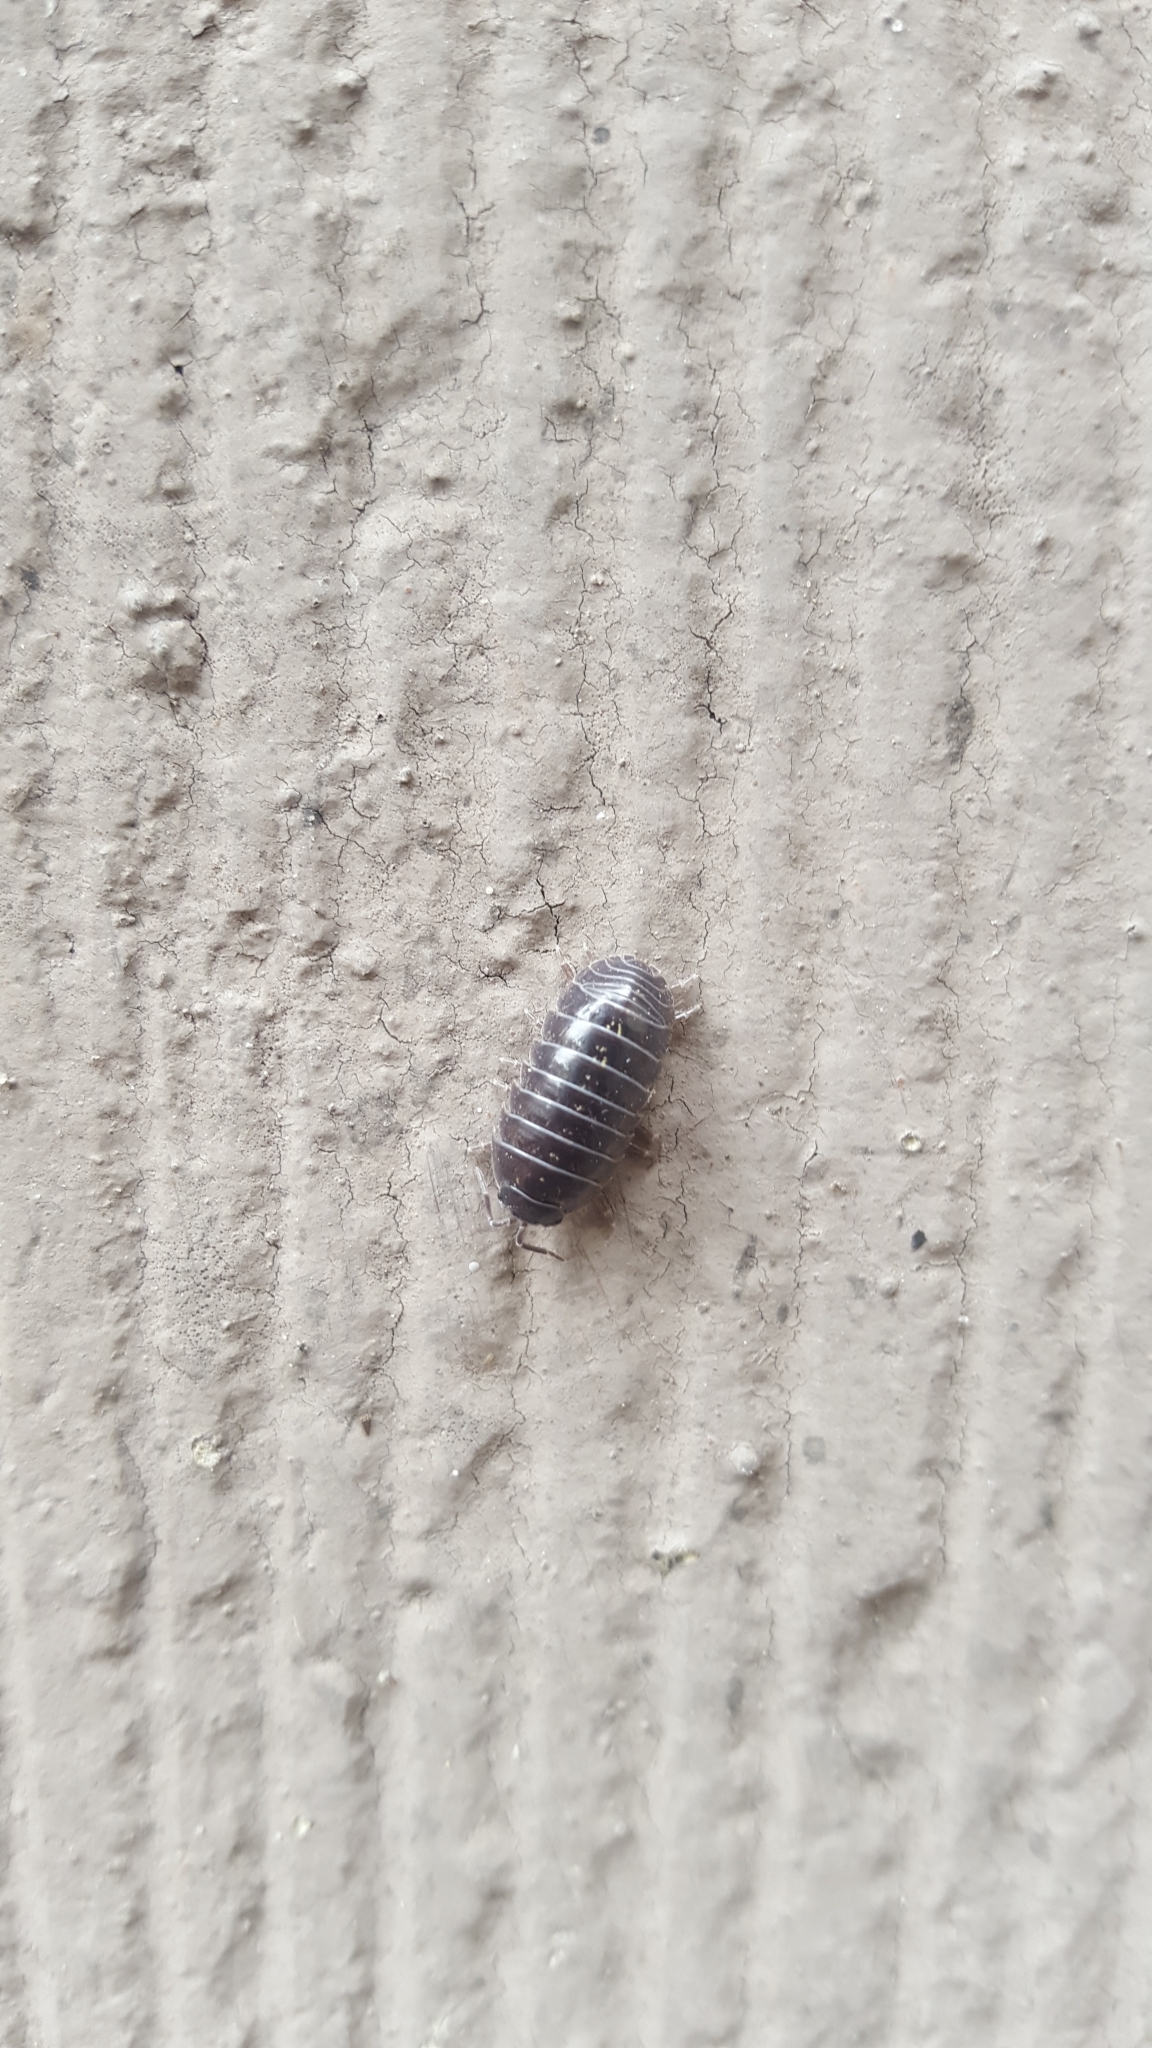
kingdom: Animalia
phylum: Arthropoda
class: Malacostraca
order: Isopoda
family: Armadillidiidae
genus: Armadillidium
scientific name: Armadillidium vulgare
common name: Common pill woodlouse
